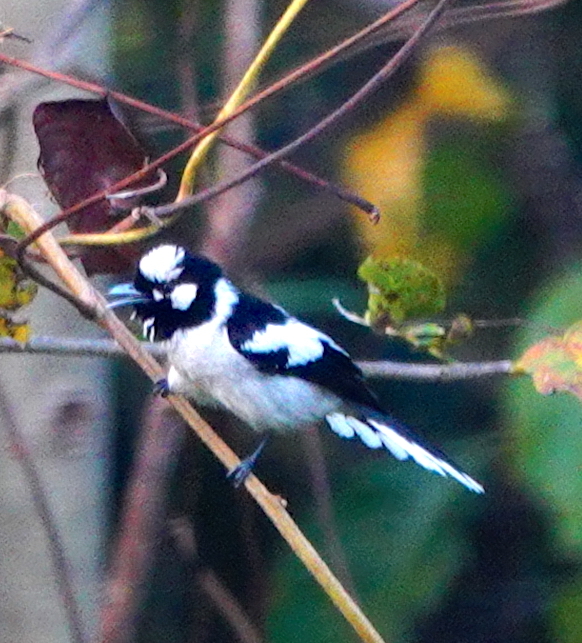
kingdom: Animalia
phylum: Chordata
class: Aves
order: Passeriformes
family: Monarchidae
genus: Carterornis
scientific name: Carterornis pileatus
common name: White-naped monarch
